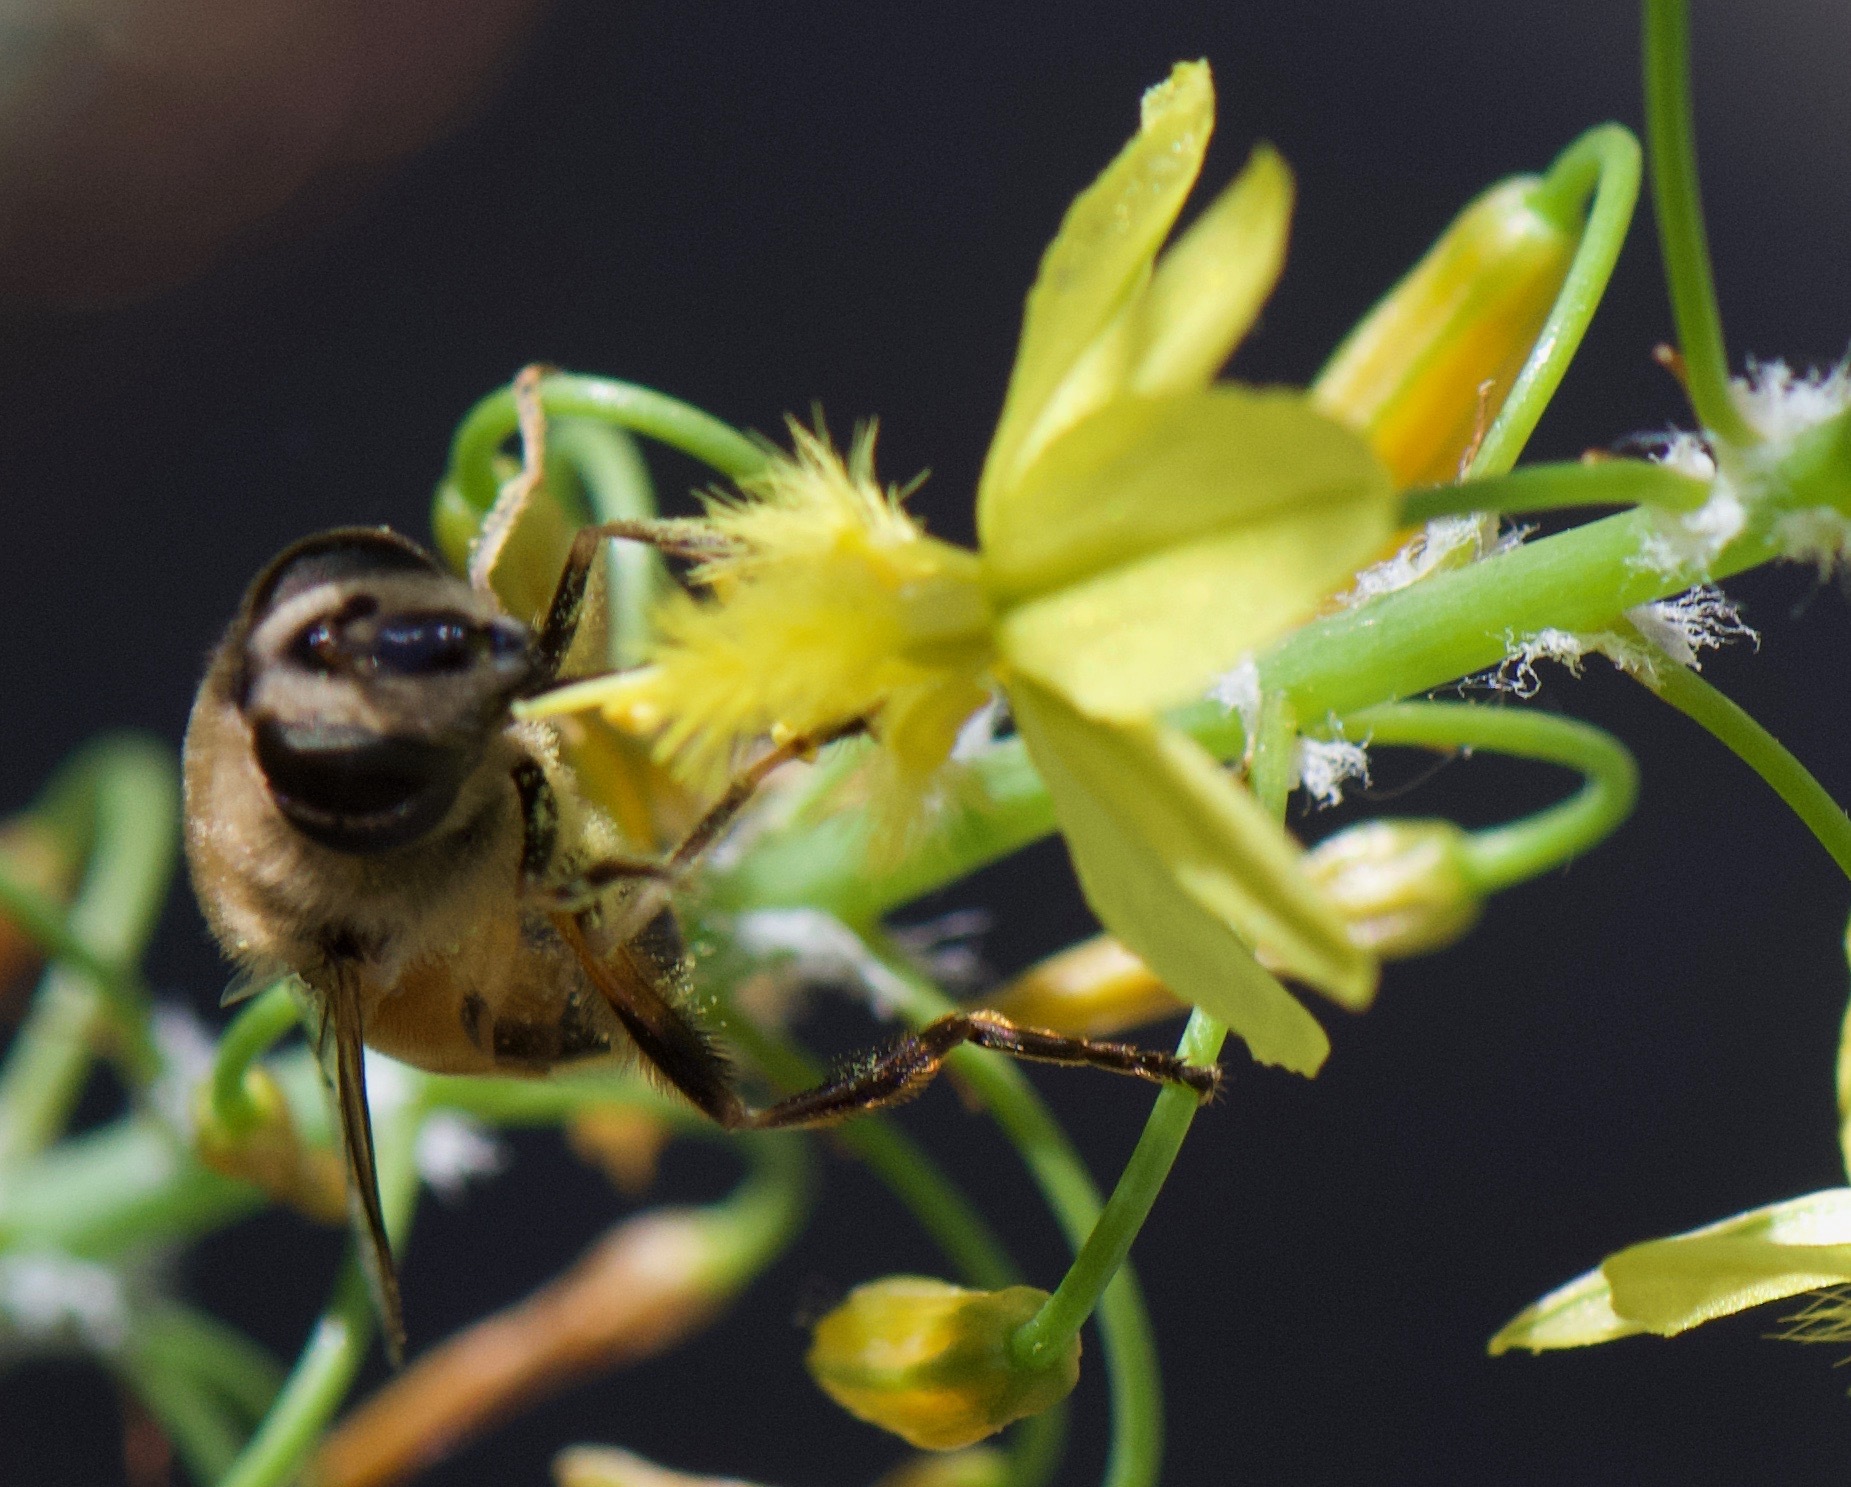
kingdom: Animalia
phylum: Arthropoda
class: Insecta
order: Diptera
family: Syrphidae
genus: Eristalis
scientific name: Eristalis tenax
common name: Drone fly
